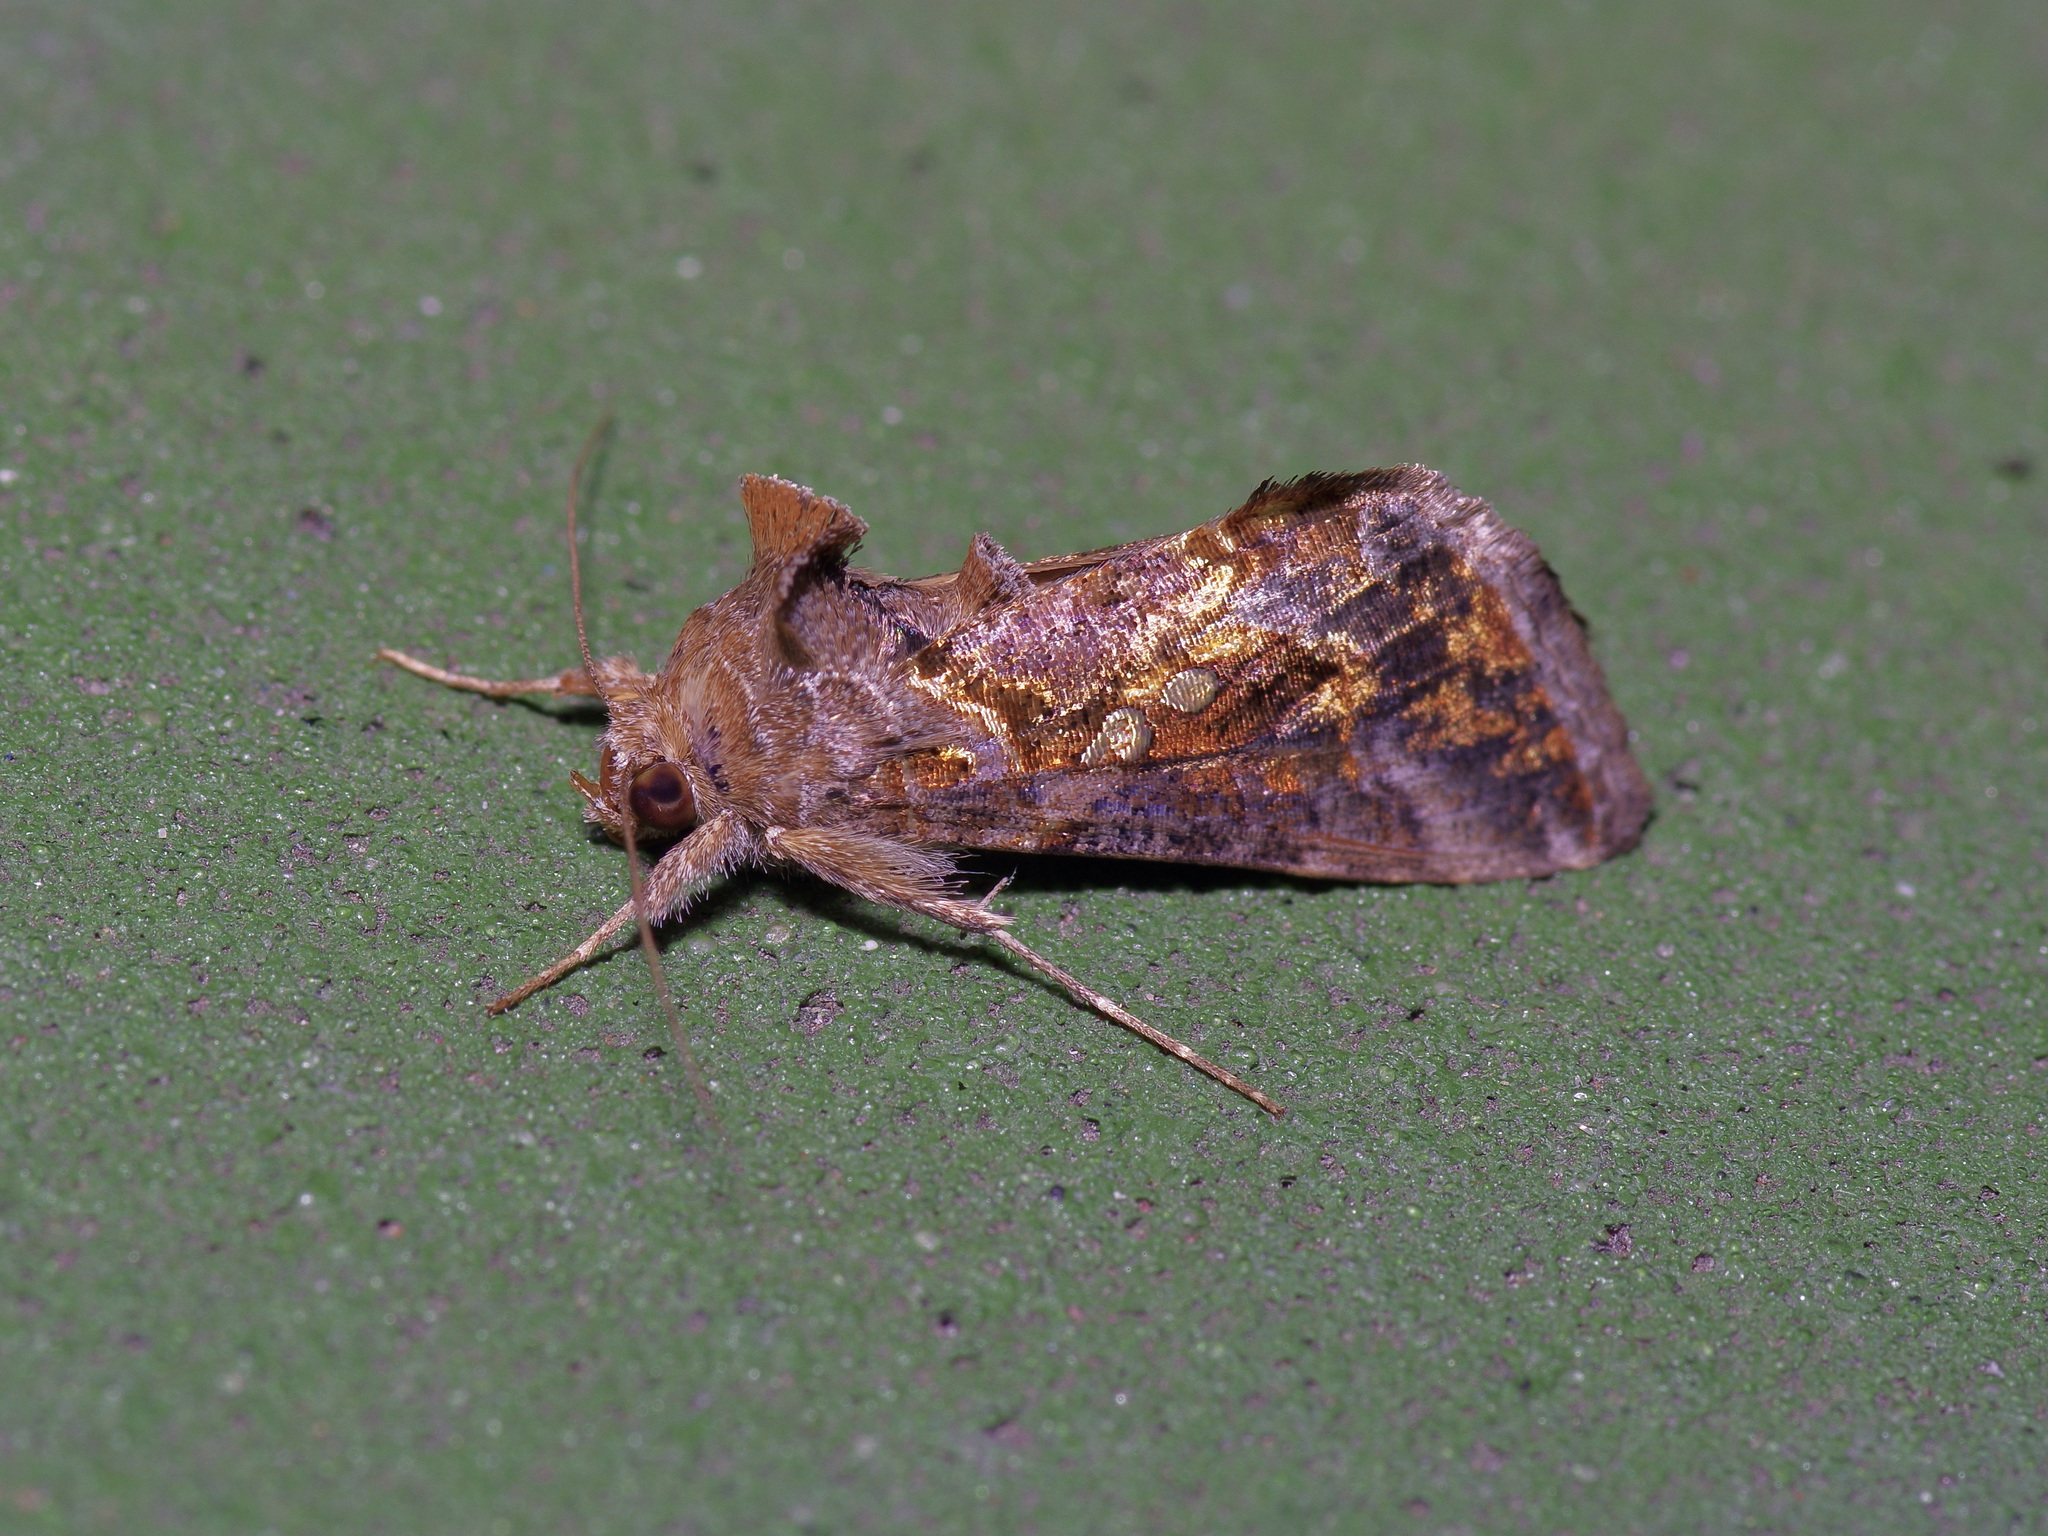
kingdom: Animalia
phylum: Arthropoda
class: Insecta
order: Lepidoptera
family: Noctuidae
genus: Chrysodeixis
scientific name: Chrysodeixis includens
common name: Cutworm moth
